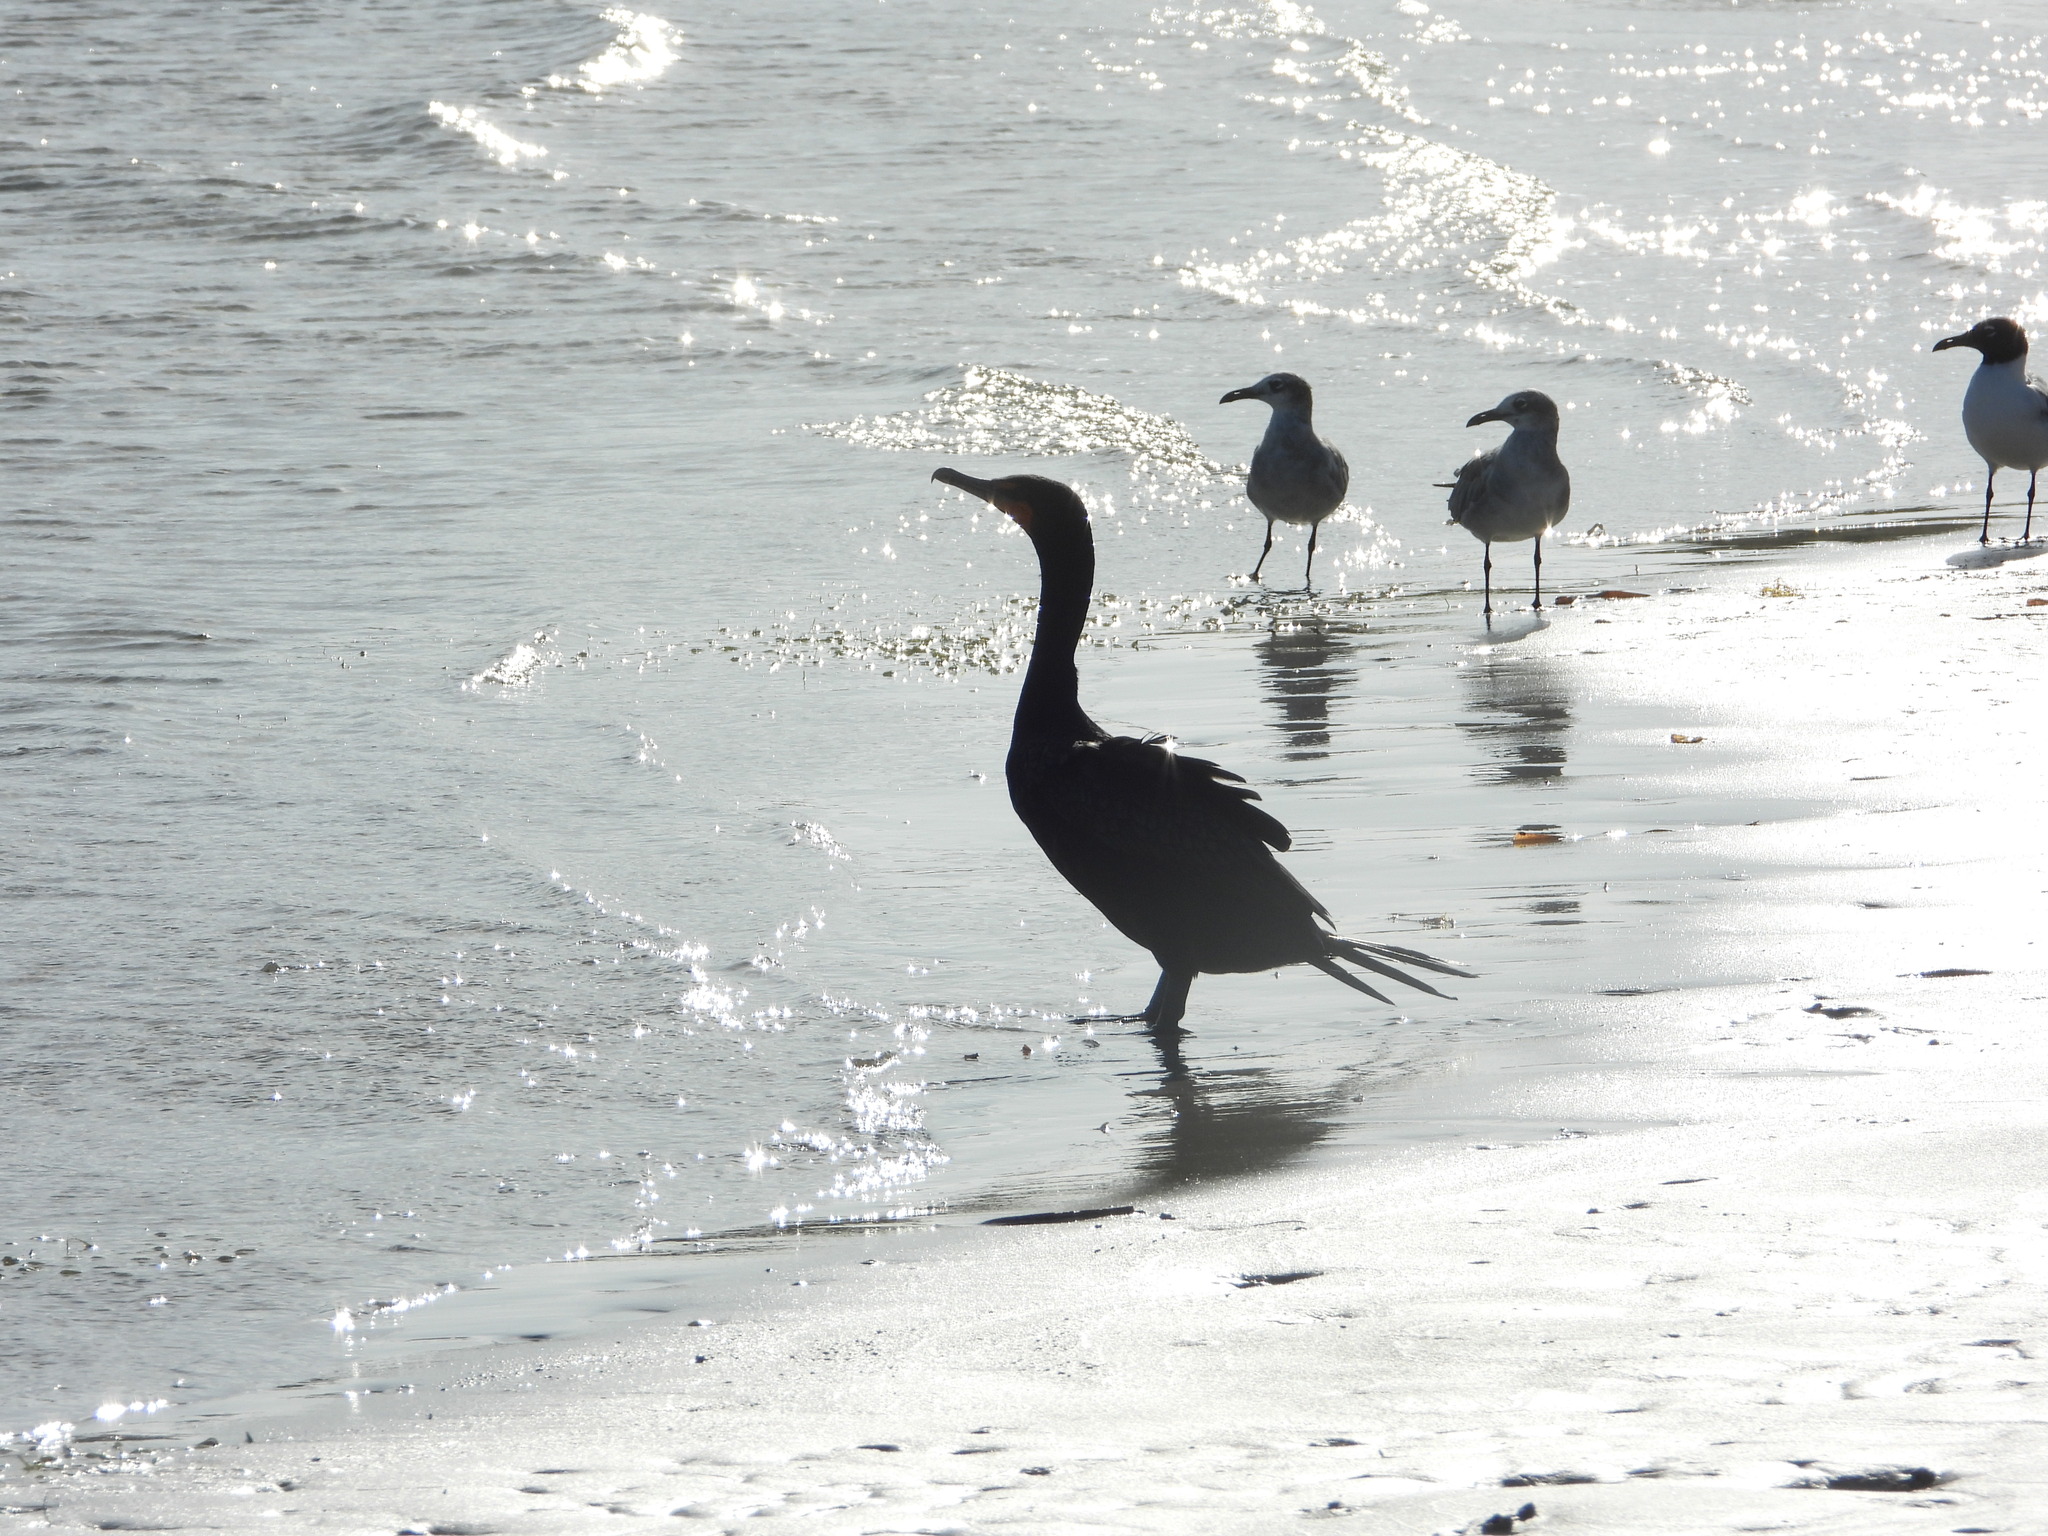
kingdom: Animalia
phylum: Chordata
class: Aves
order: Suliformes
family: Phalacrocoracidae
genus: Phalacrocorax
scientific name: Phalacrocorax auritus
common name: Double-crested cormorant
